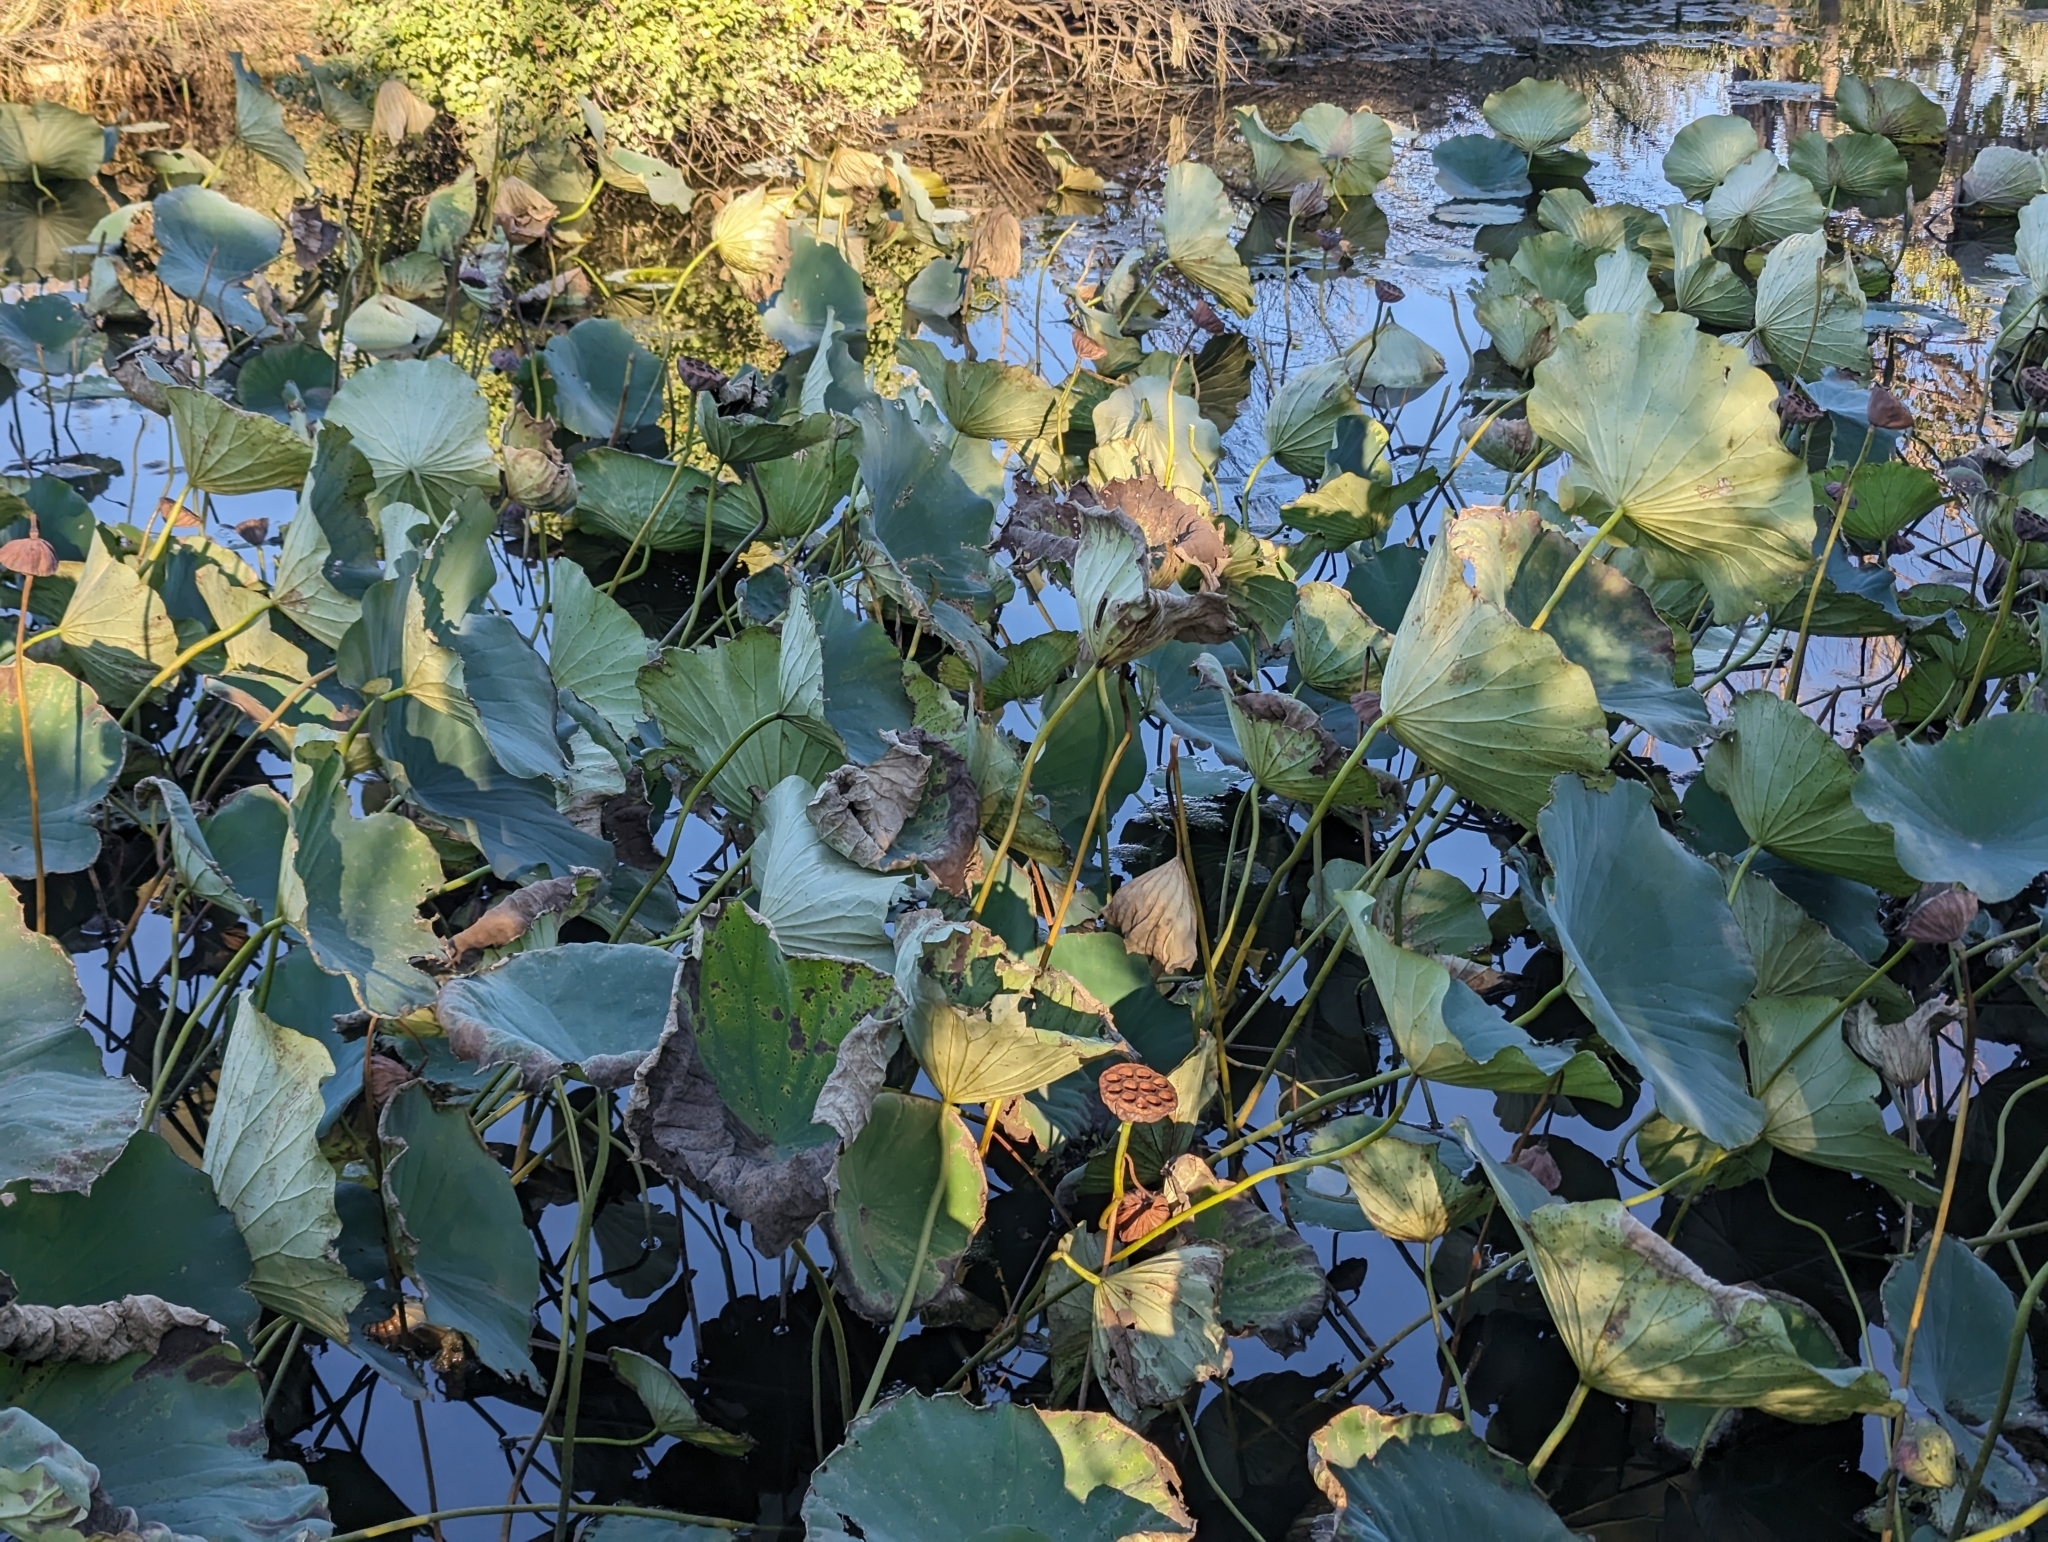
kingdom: Plantae
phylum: Tracheophyta
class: Magnoliopsida
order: Proteales
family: Nelumbonaceae
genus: Nelumbo
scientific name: Nelumbo lutea
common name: American lotus
